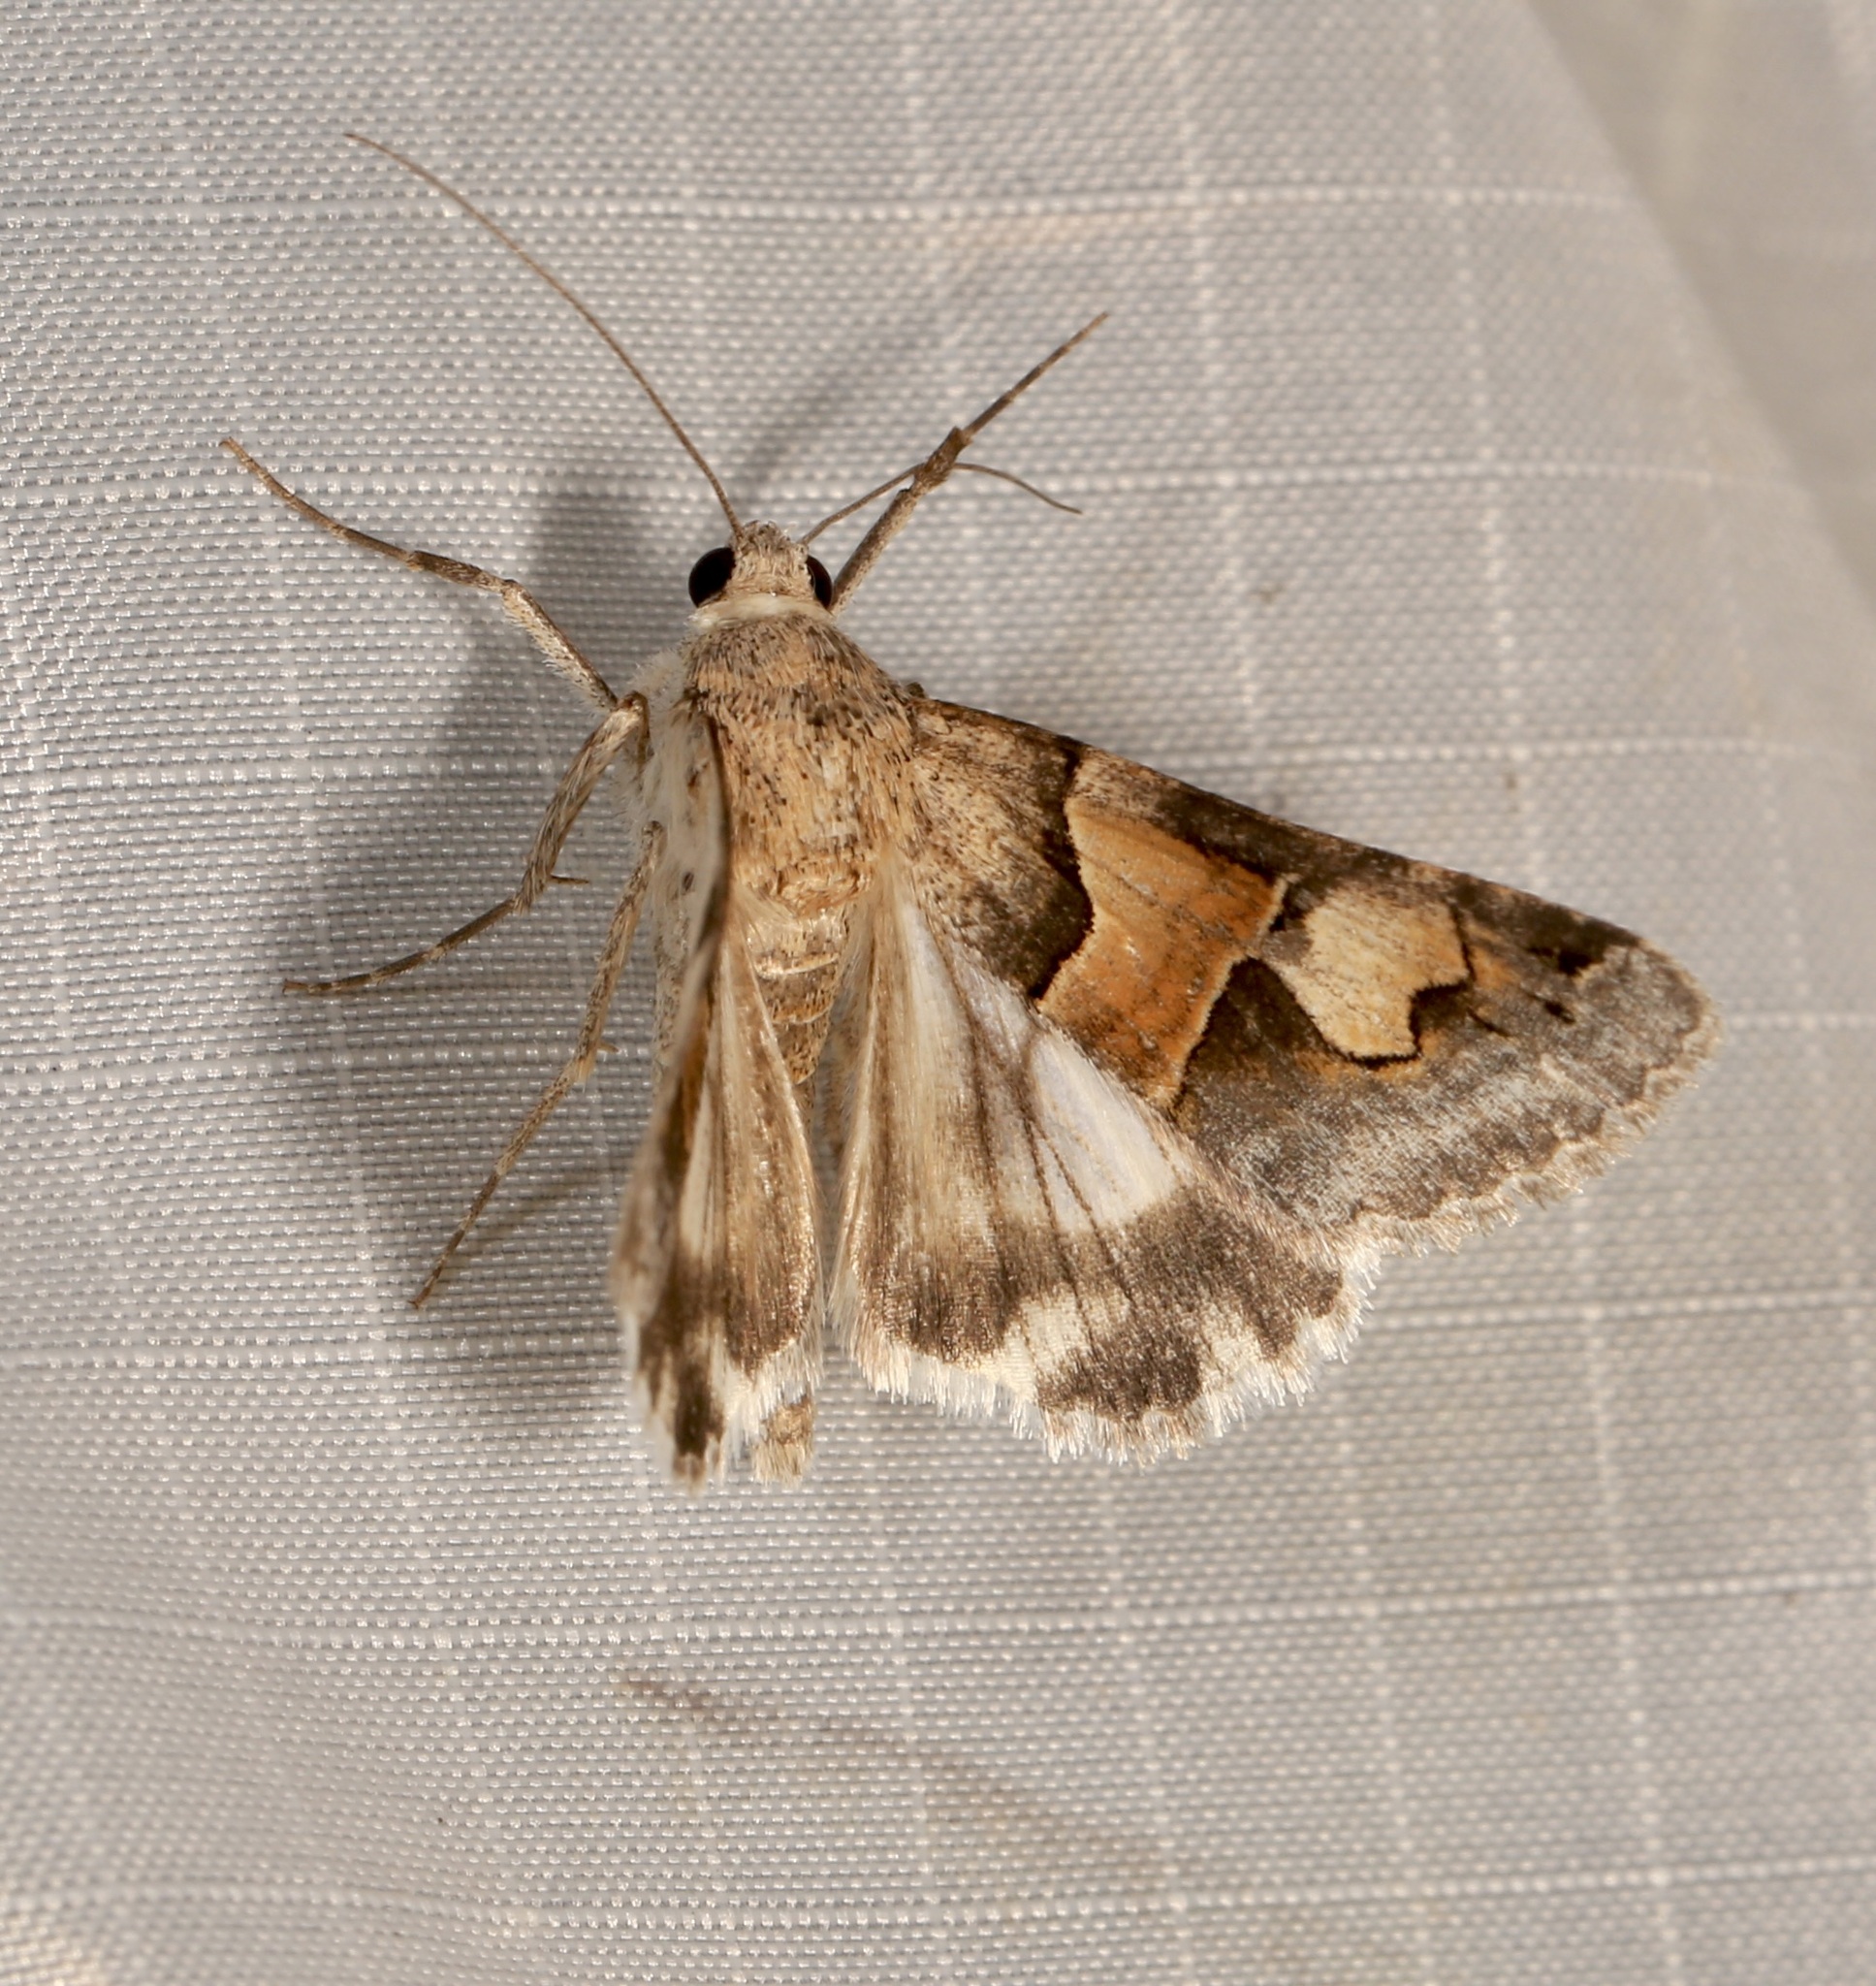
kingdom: Animalia
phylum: Arthropoda
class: Insecta
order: Lepidoptera
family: Erebidae
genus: Drasteria
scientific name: Drasteria pallescens
